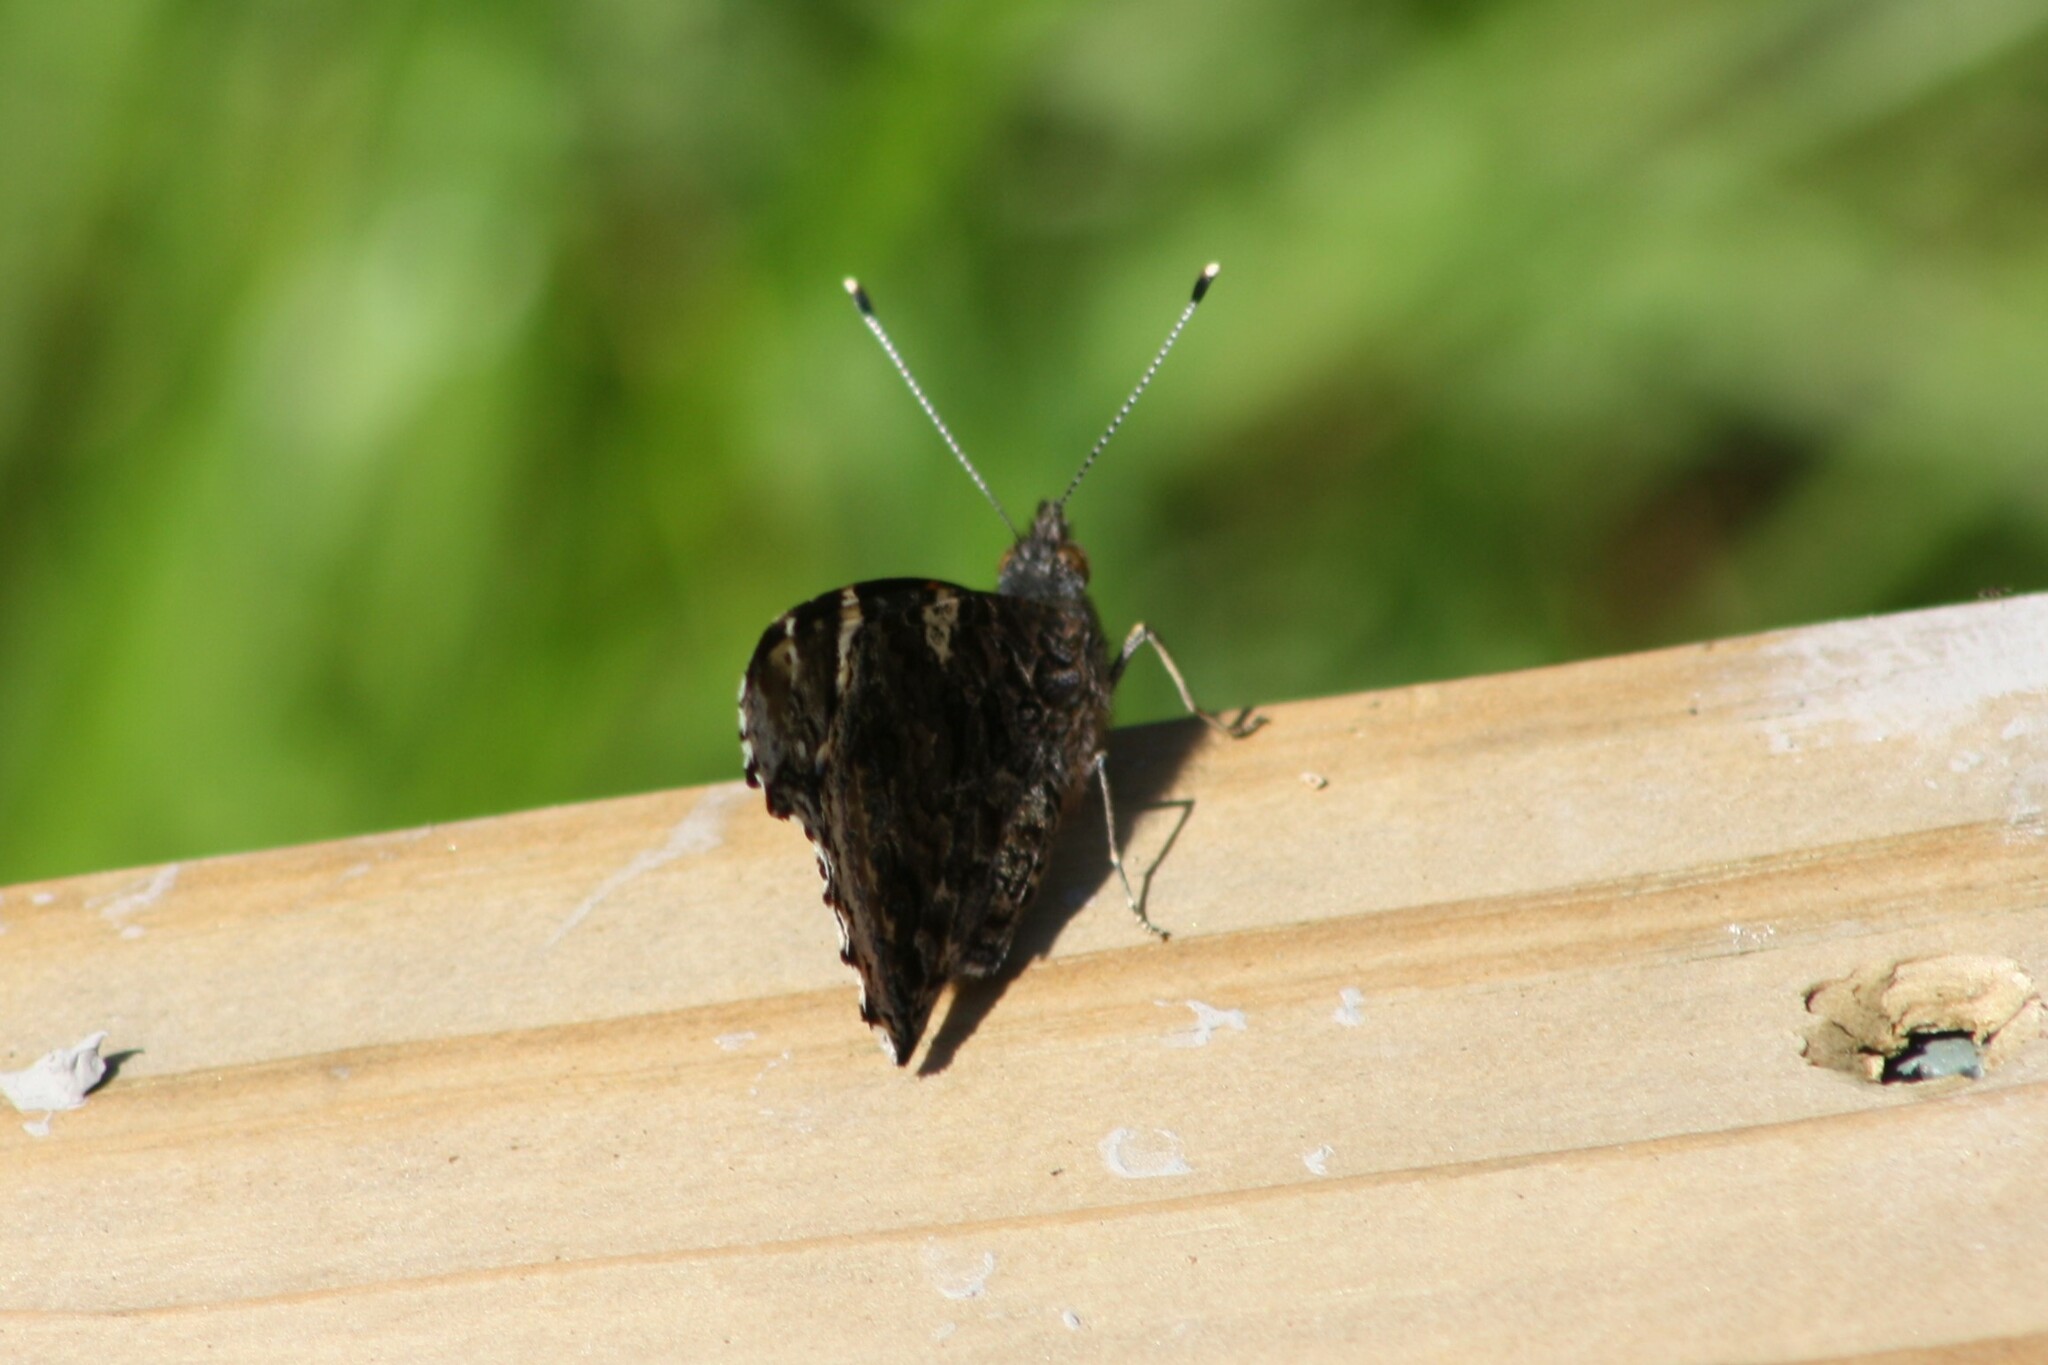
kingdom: Animalia
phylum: Arthropoda
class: Insecta
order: Lepidoptera
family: Nymphalidae
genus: Vanessa
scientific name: Vanessa atalanta
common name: Red admiral
